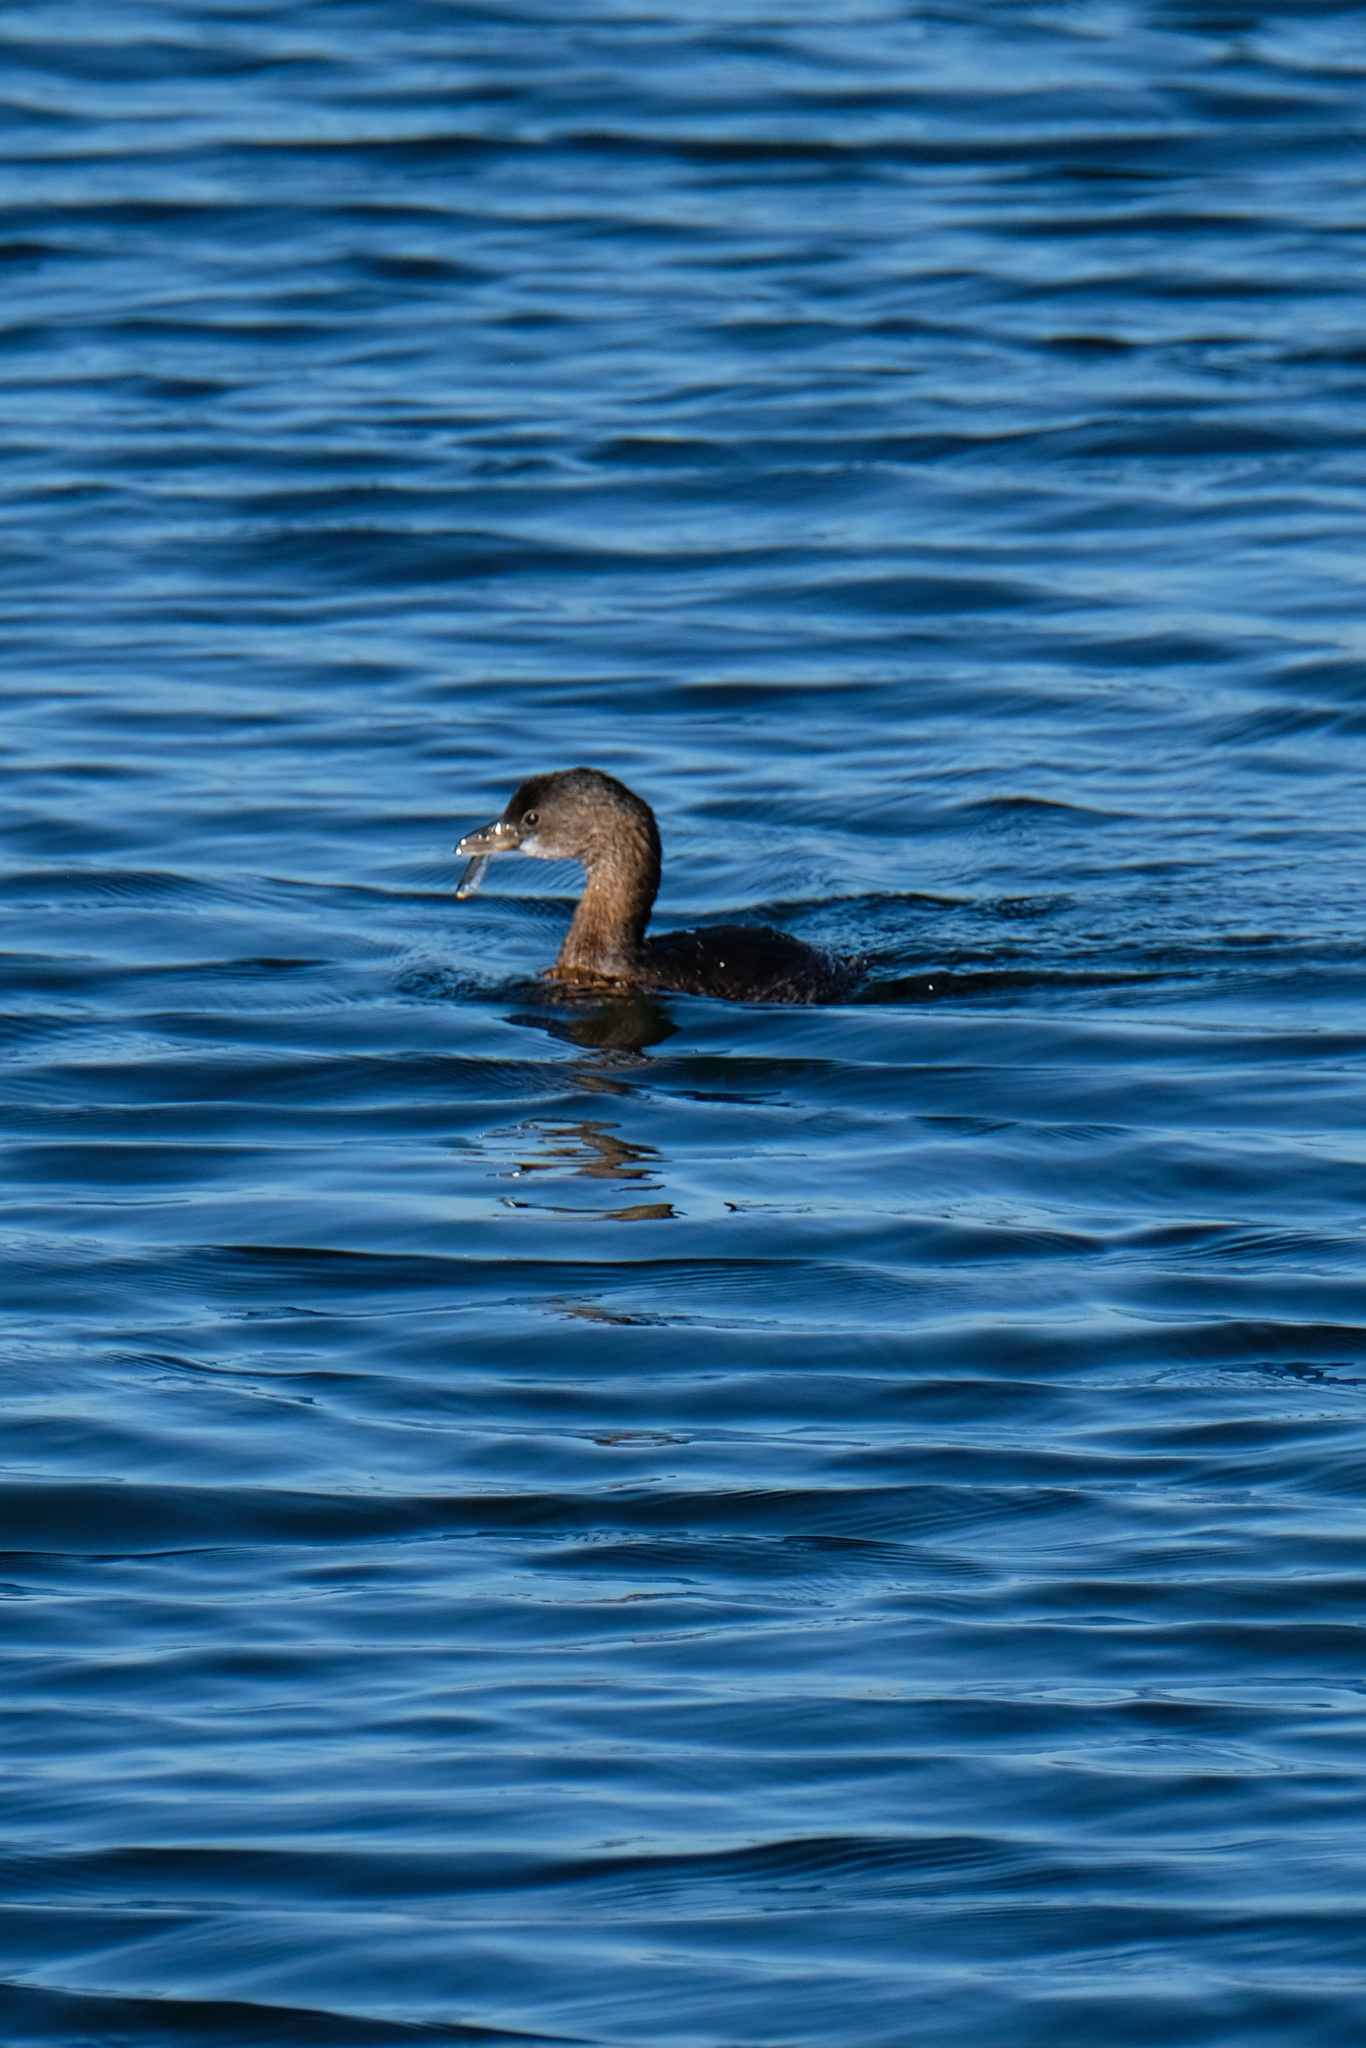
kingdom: Animalia
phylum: Chordata
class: Aves
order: Podicipediformes
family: Podicipedidae
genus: Podilymbus
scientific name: Podilymbus podiceps
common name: Pied-billed grebe
